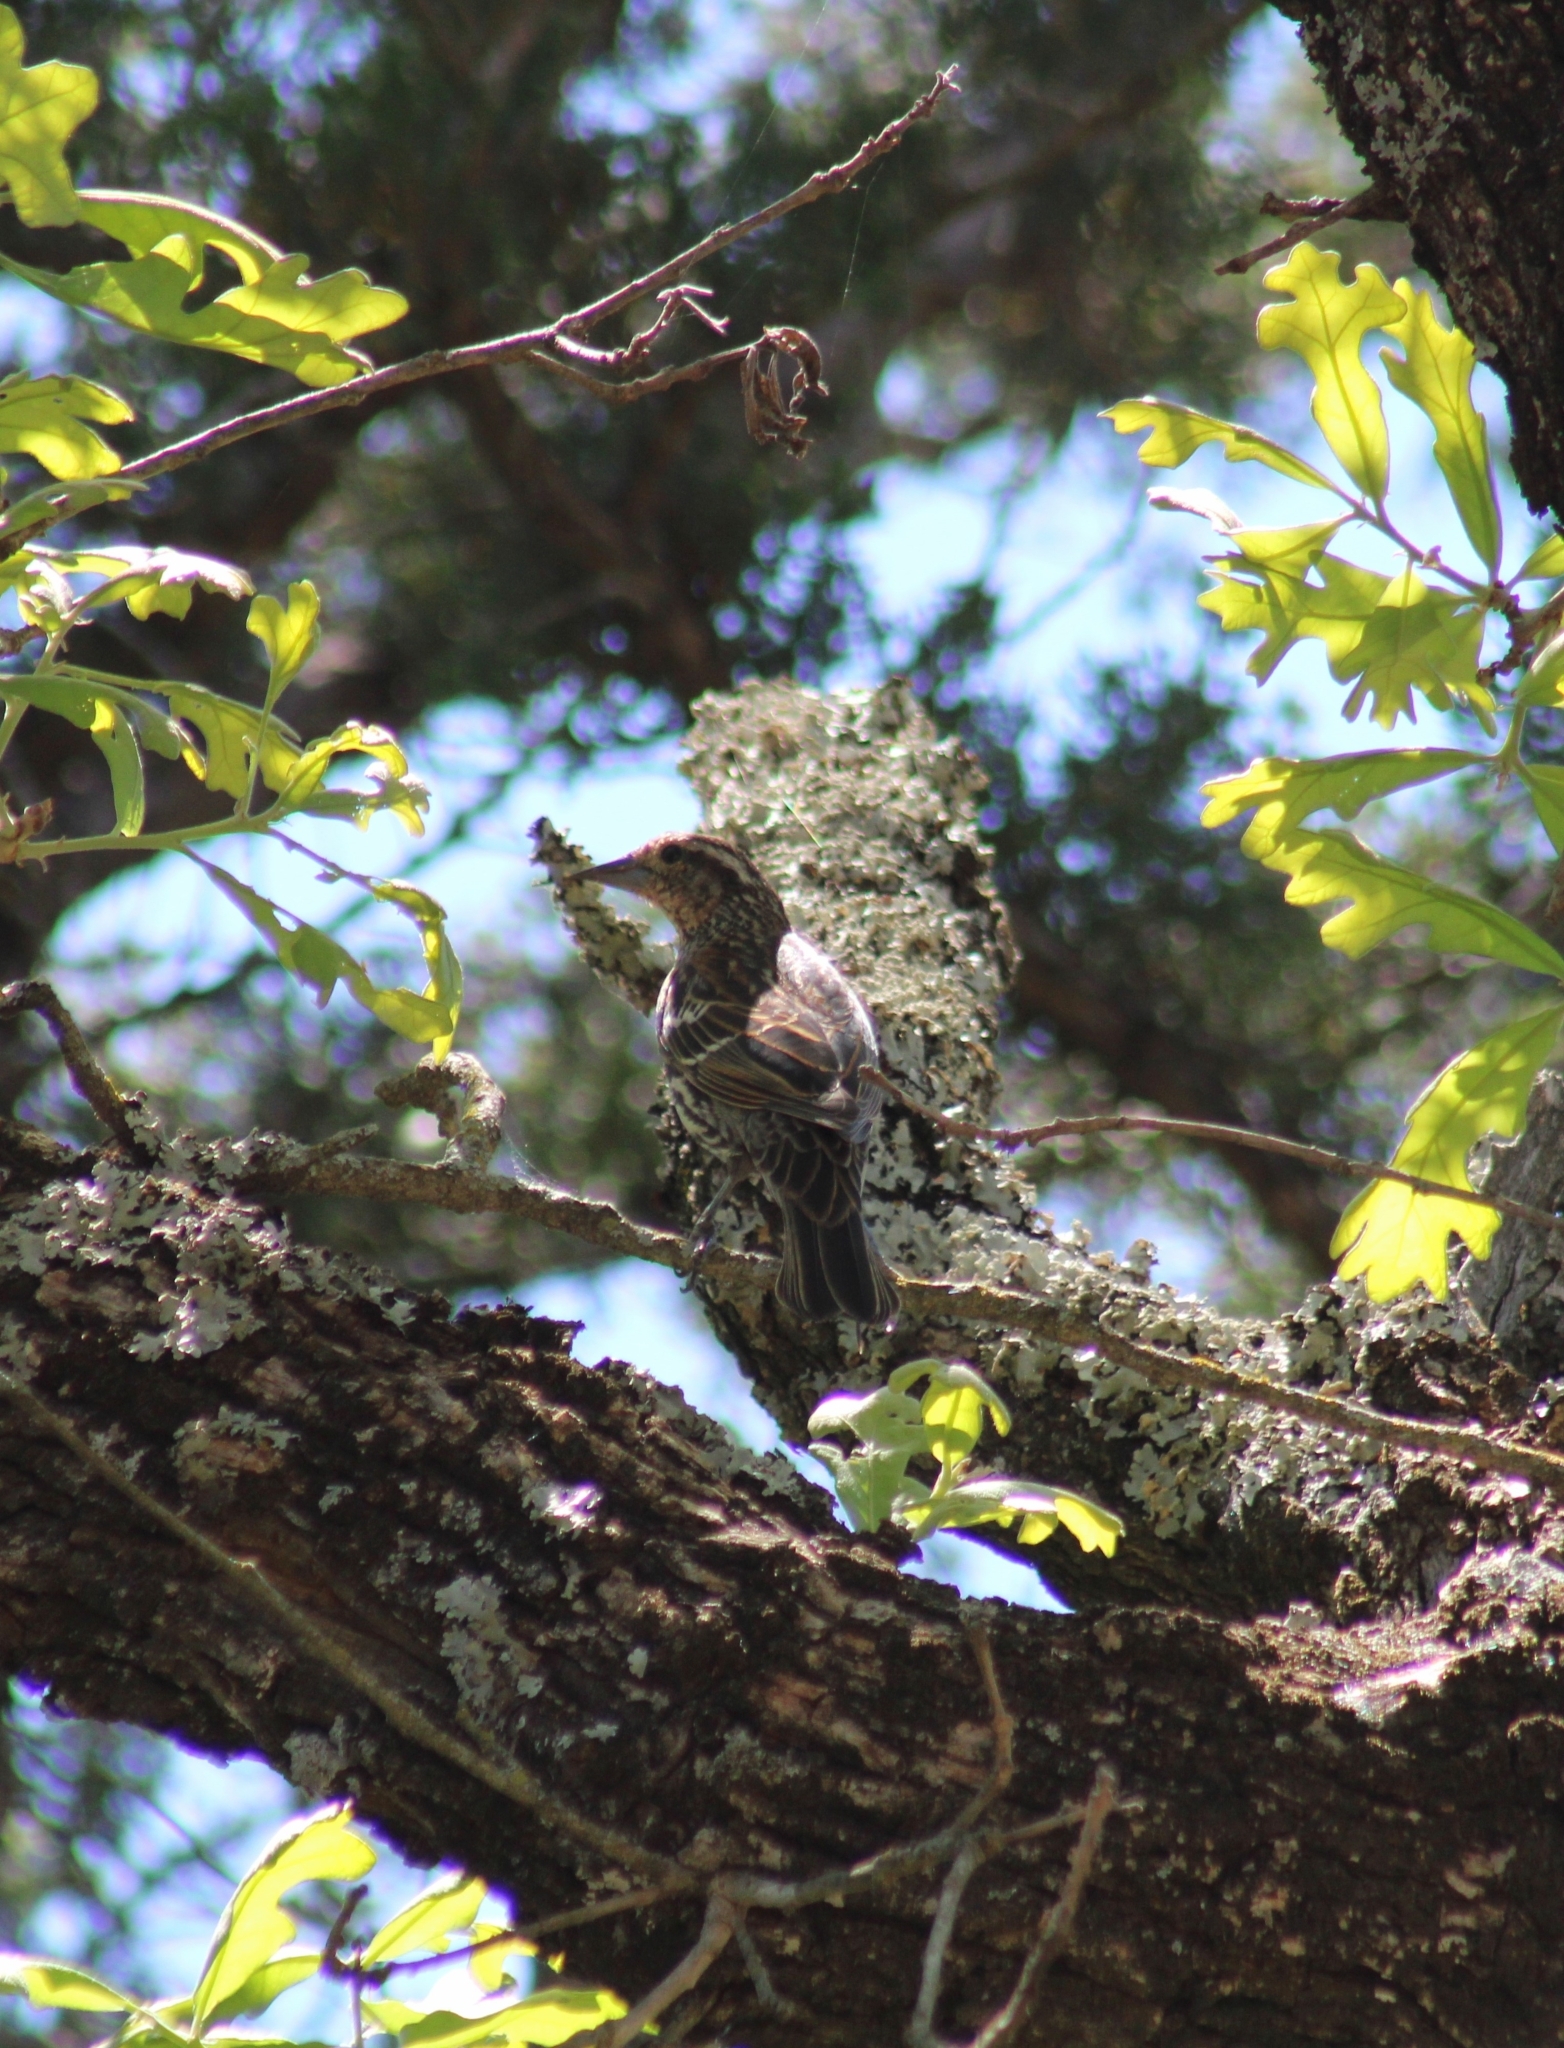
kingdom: Animalia
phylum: Chordata
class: Aves
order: Passeriformes
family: Icteridae
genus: Agelaius
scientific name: Agelaius phoeniceus
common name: Red-winged blackbird
